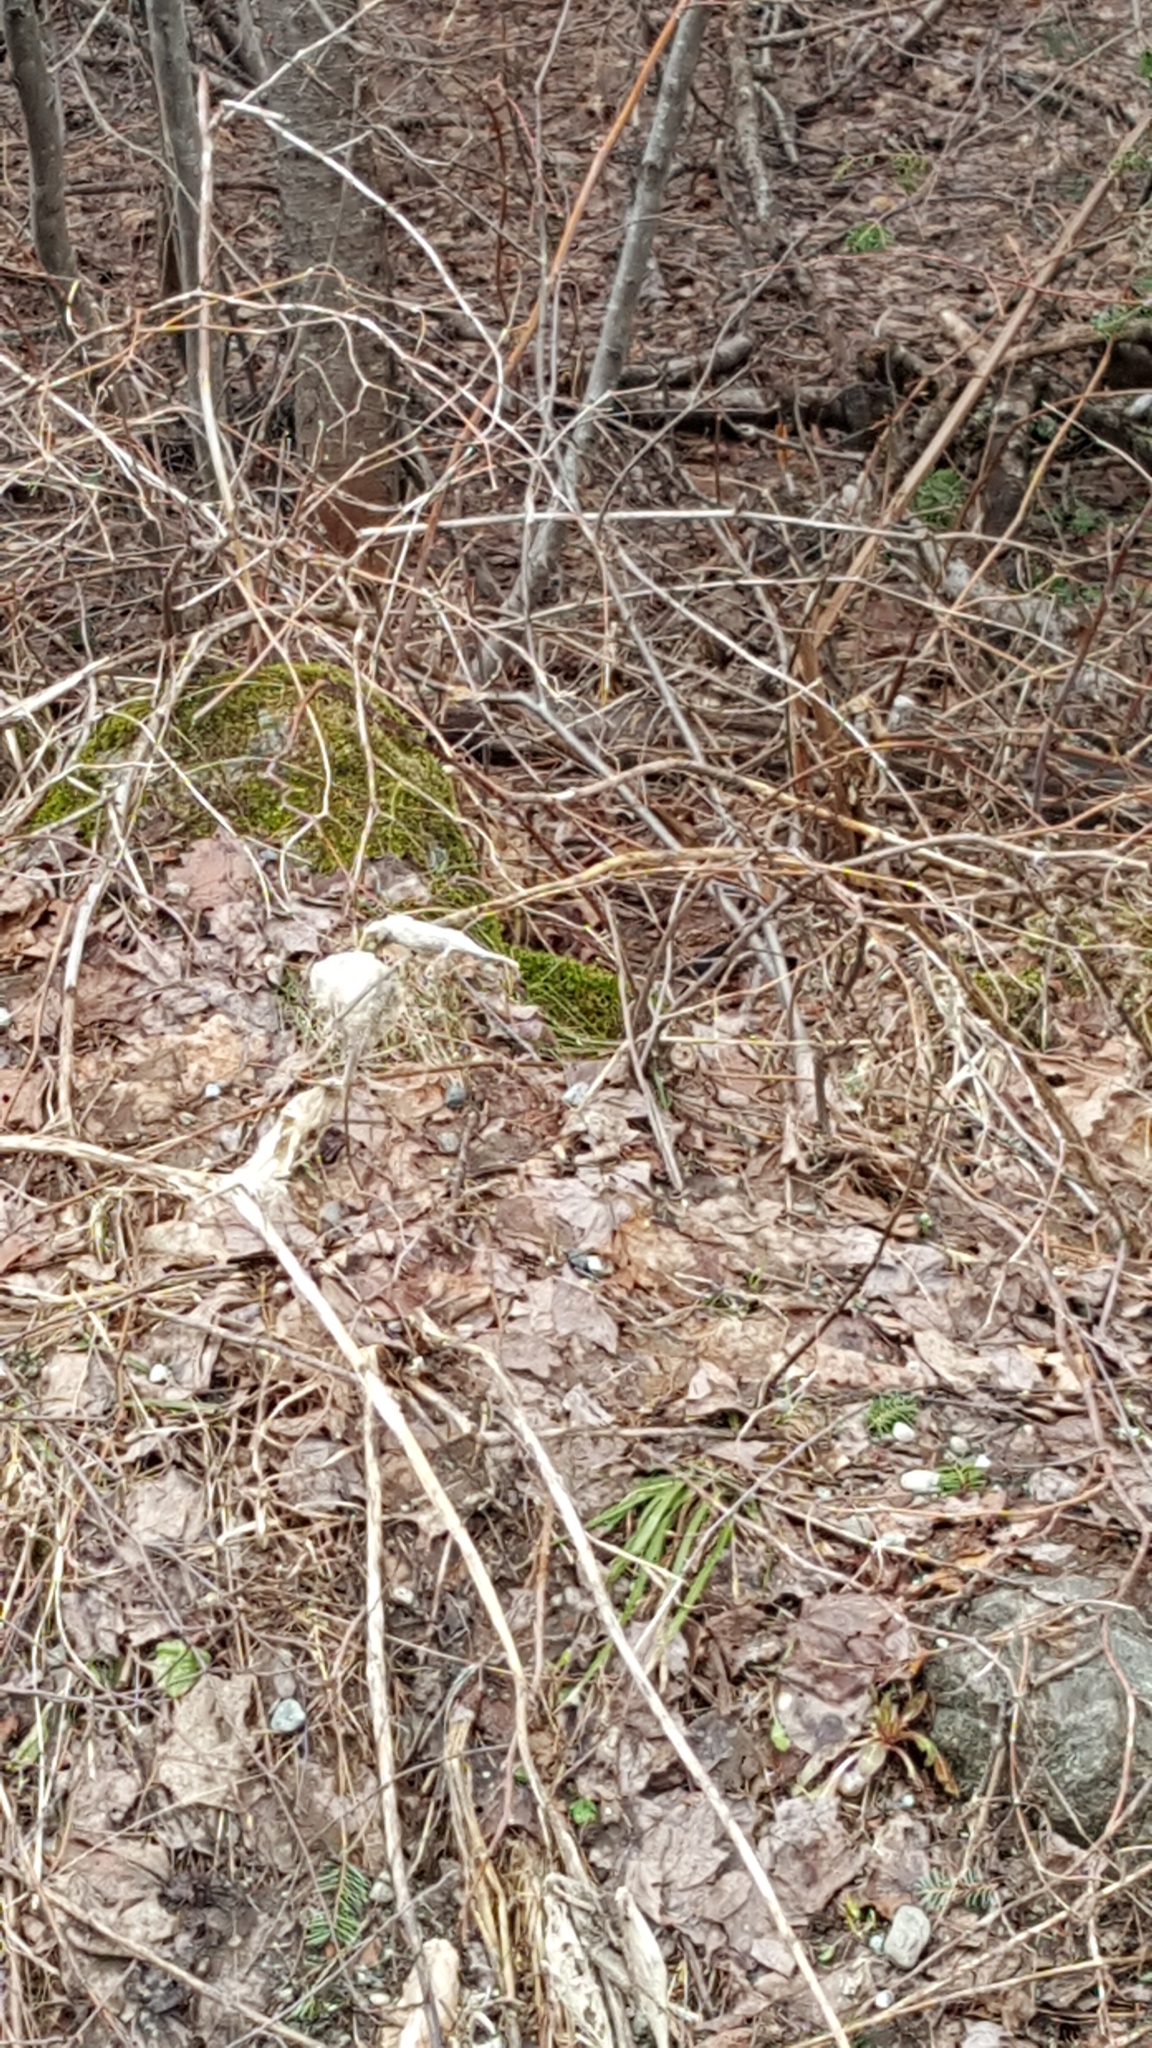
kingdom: Plantae
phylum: Tracheophyta
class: Magnoliopsida
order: Gentianales
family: Apocynaceae
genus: Asclepias
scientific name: Asclepias syriaca
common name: Common milkweed
